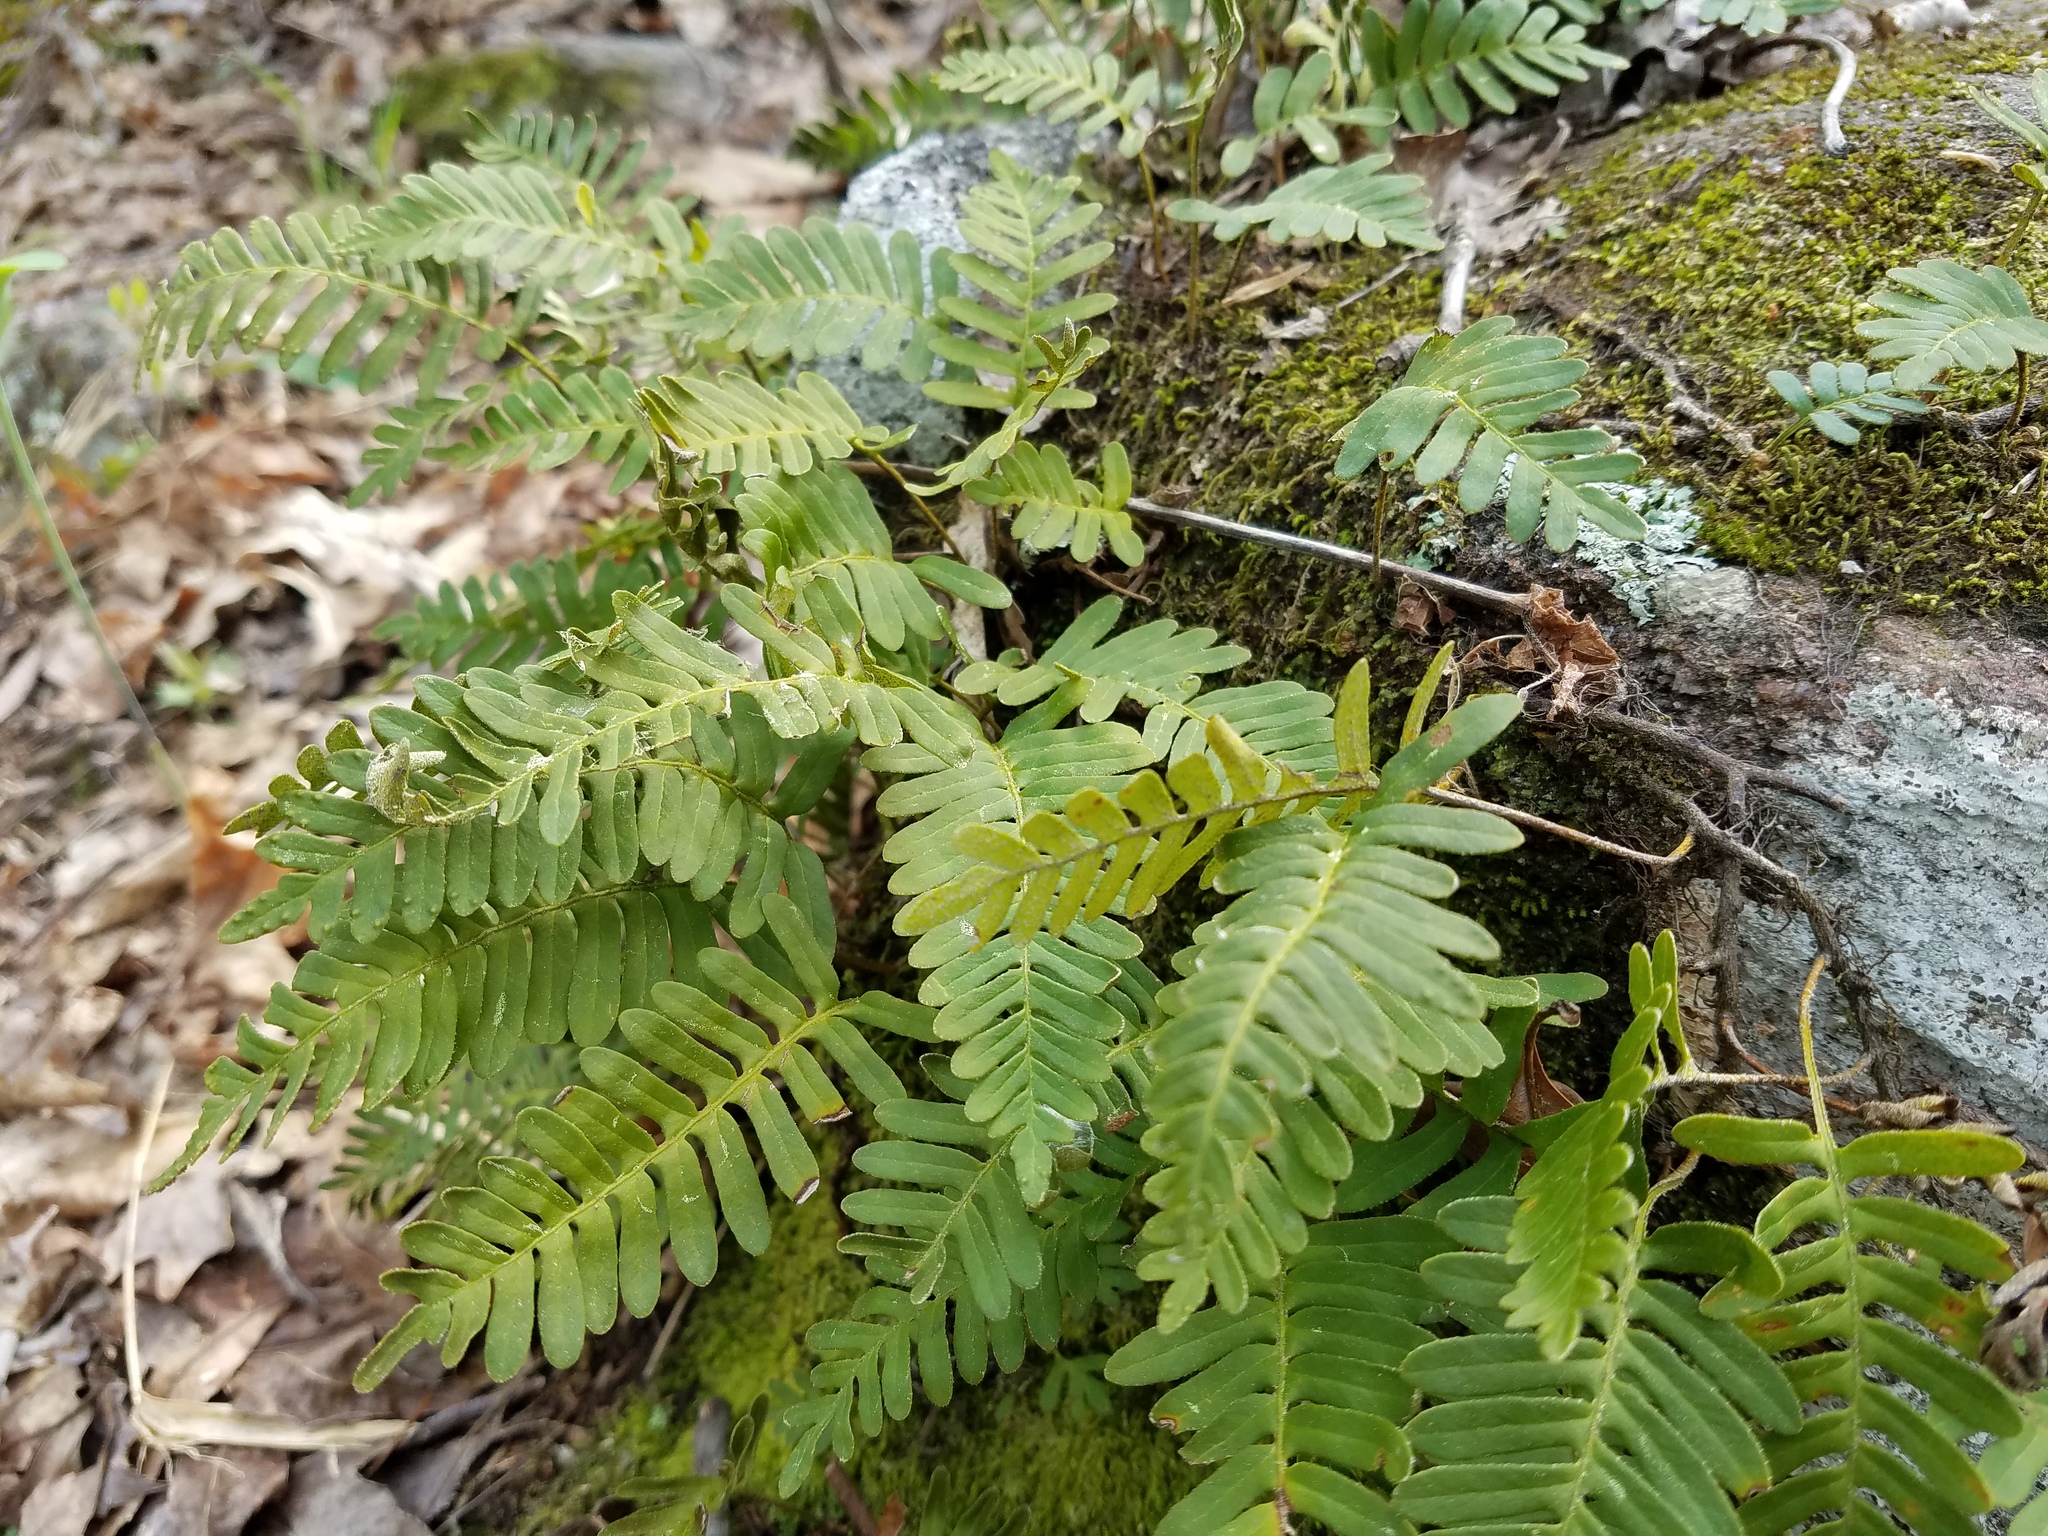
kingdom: Plantae
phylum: Tracheophyta
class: Polypodiopsida
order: Polypodiales
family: Polypodiaceae
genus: Pleopeltis
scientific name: Pleopeltis michauxiana
